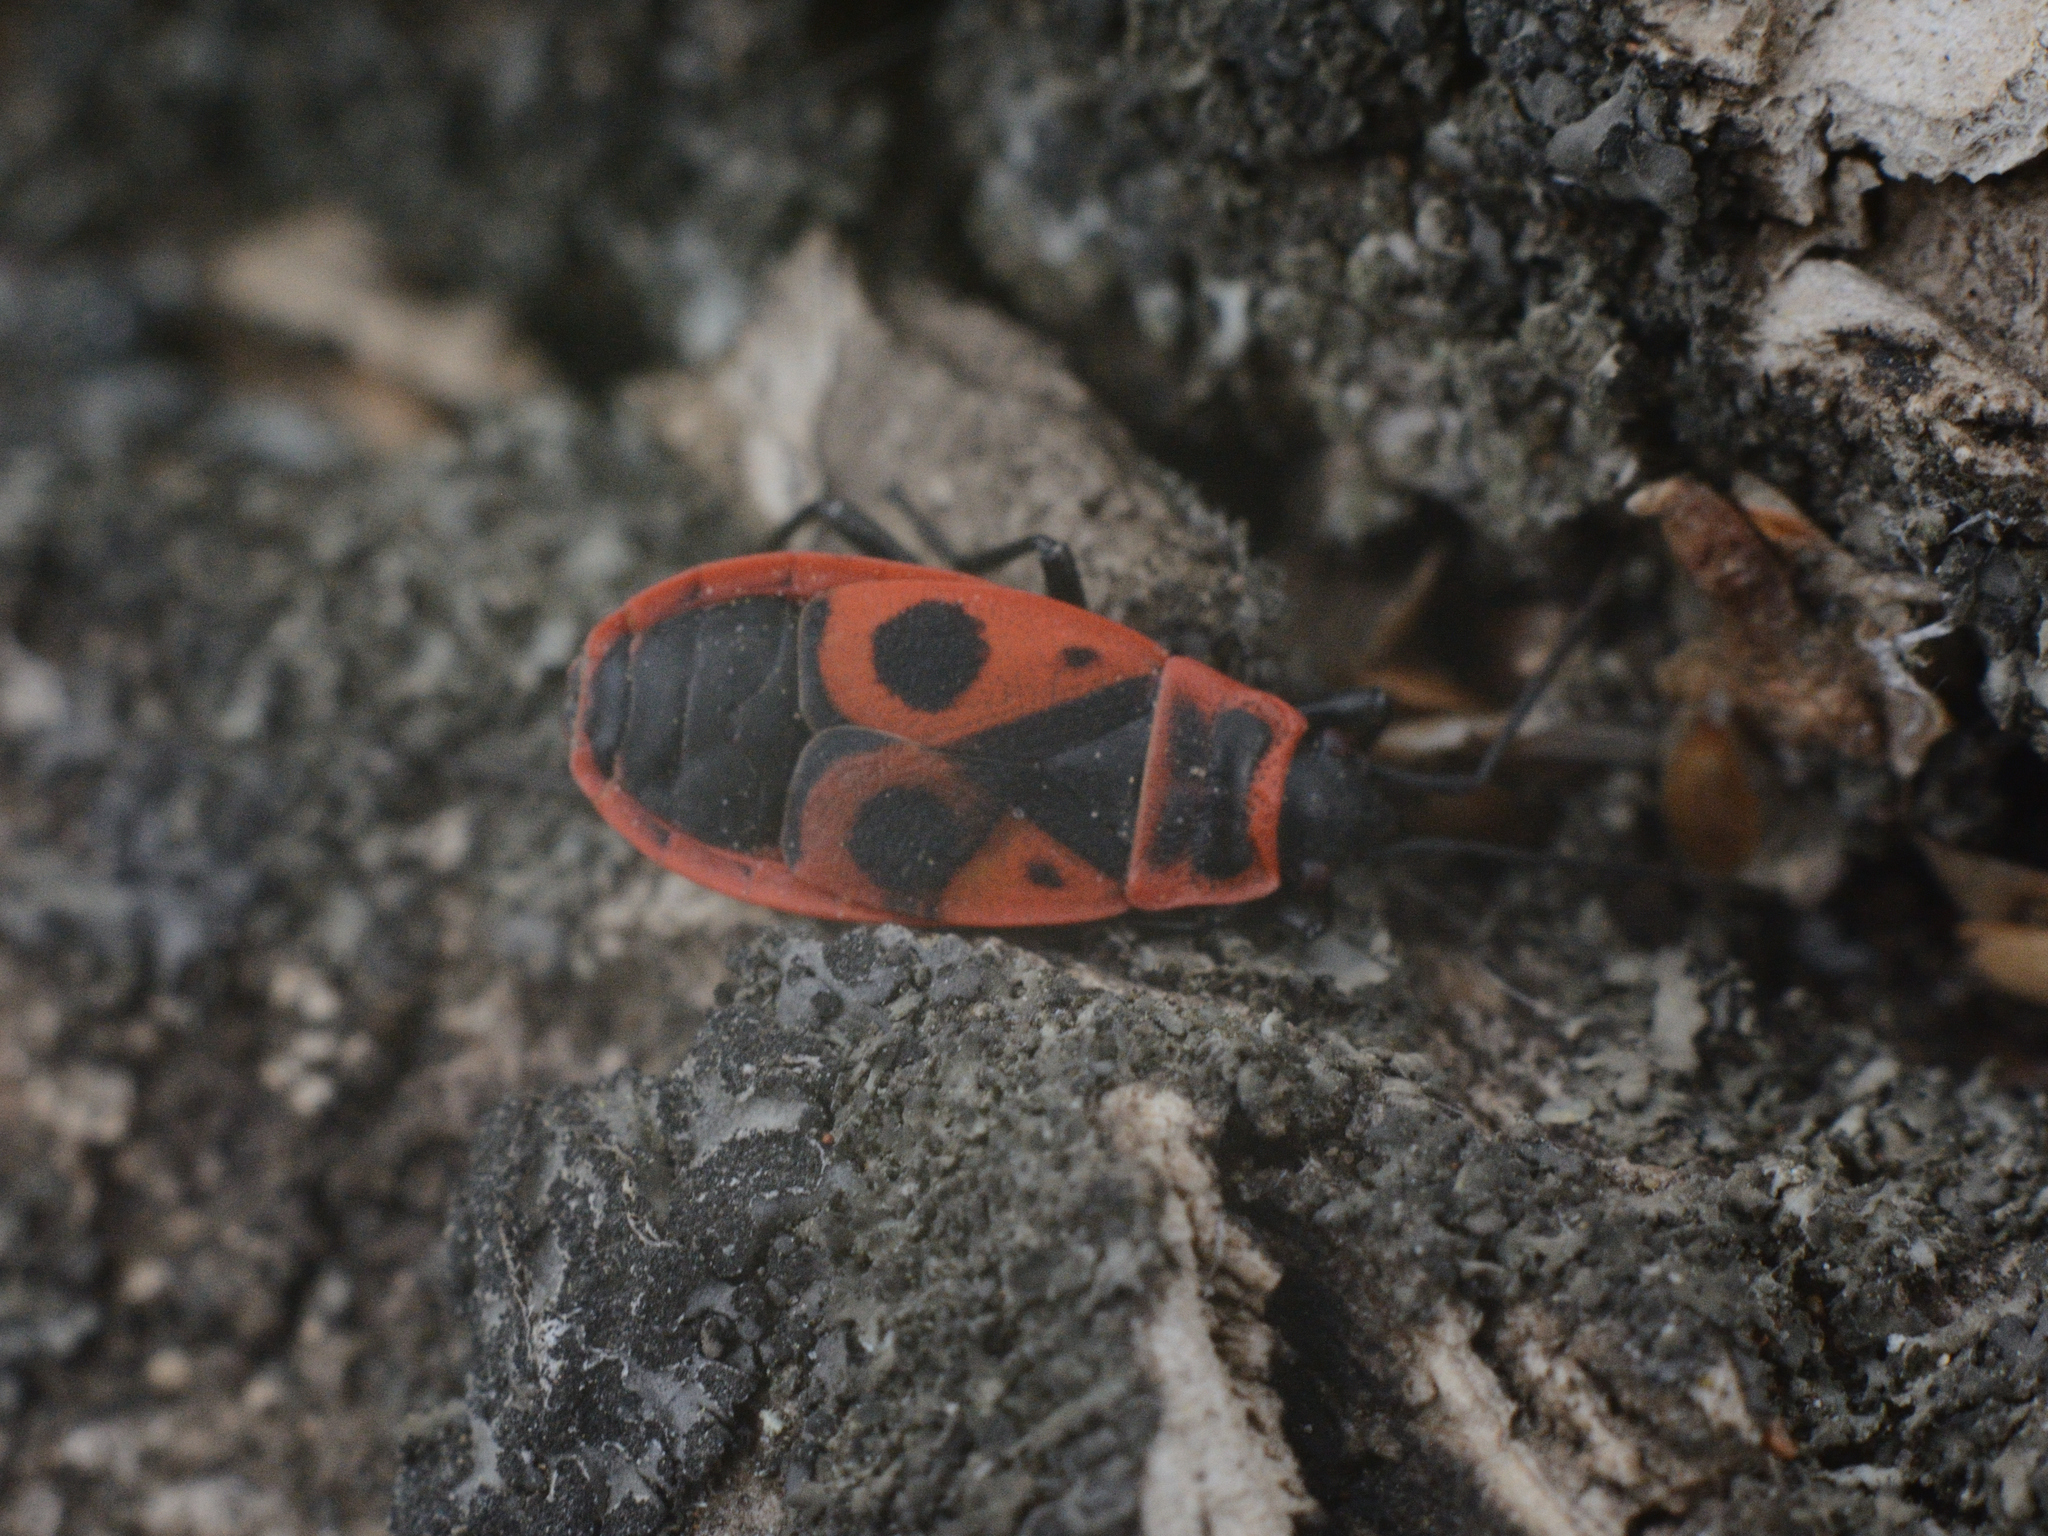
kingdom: Animalia
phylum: Arthropoda
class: Insecta
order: Hemiptera
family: Pyrrhocoridae
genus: Pyrrhocoris
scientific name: Pyrrhocoris apterus
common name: Firebug
